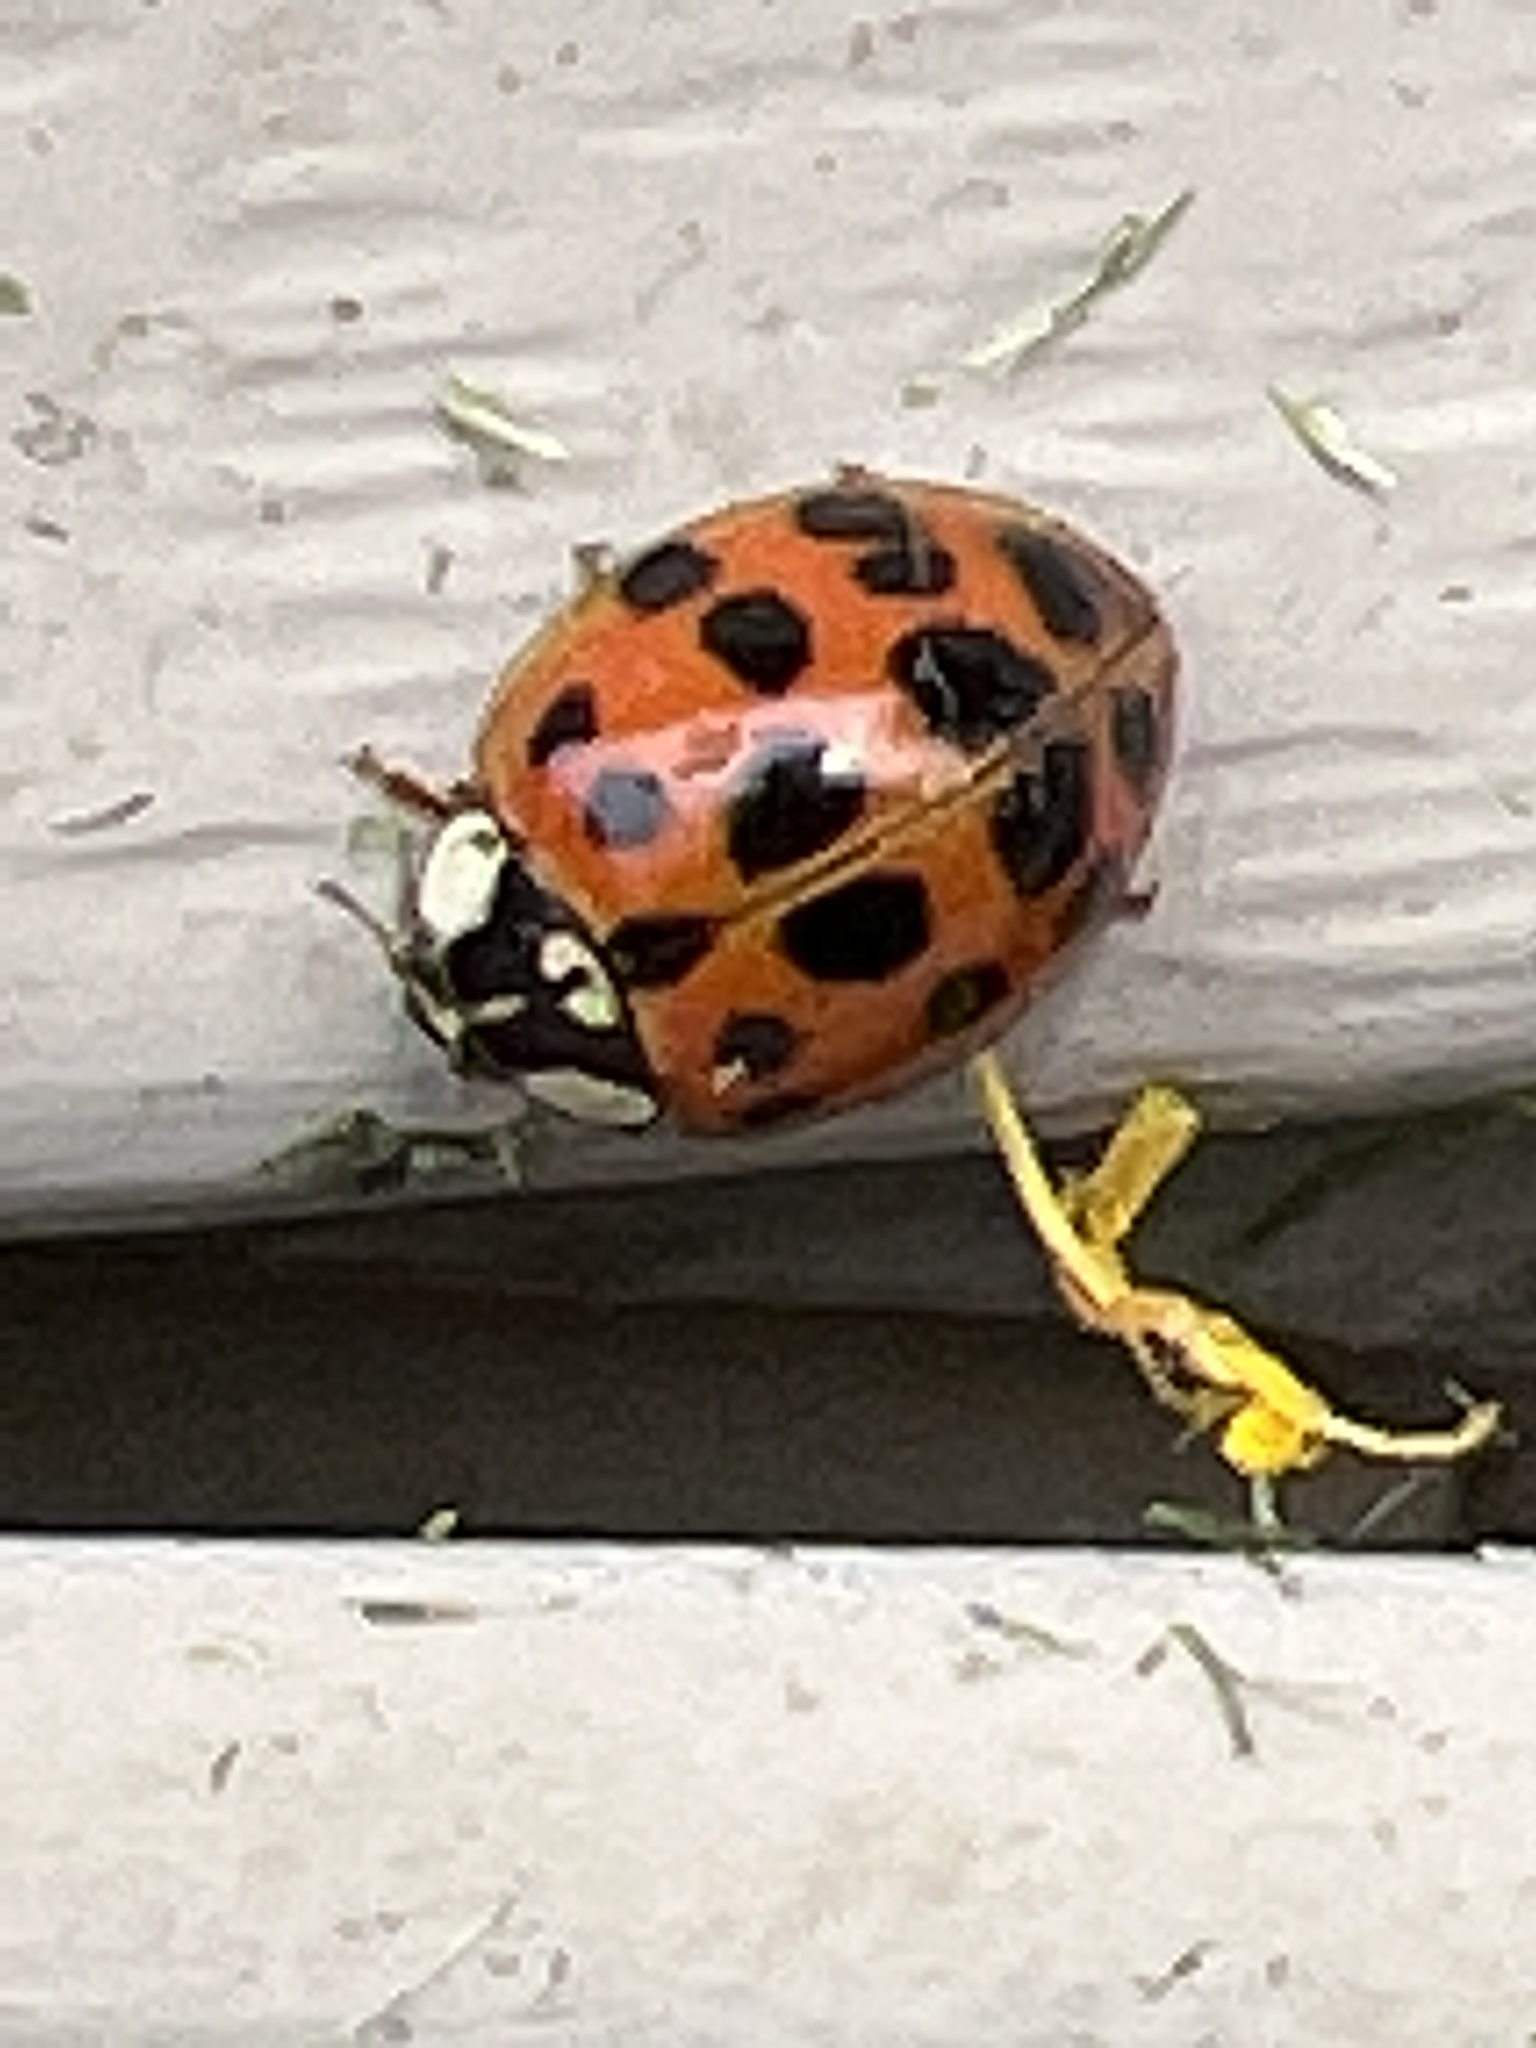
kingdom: Animalia
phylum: Arthropoda
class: Insecta
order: Coleoptera
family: Coccinellidae
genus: Harmonia
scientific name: Harmonia axyridis
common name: Harlequin ladybird
